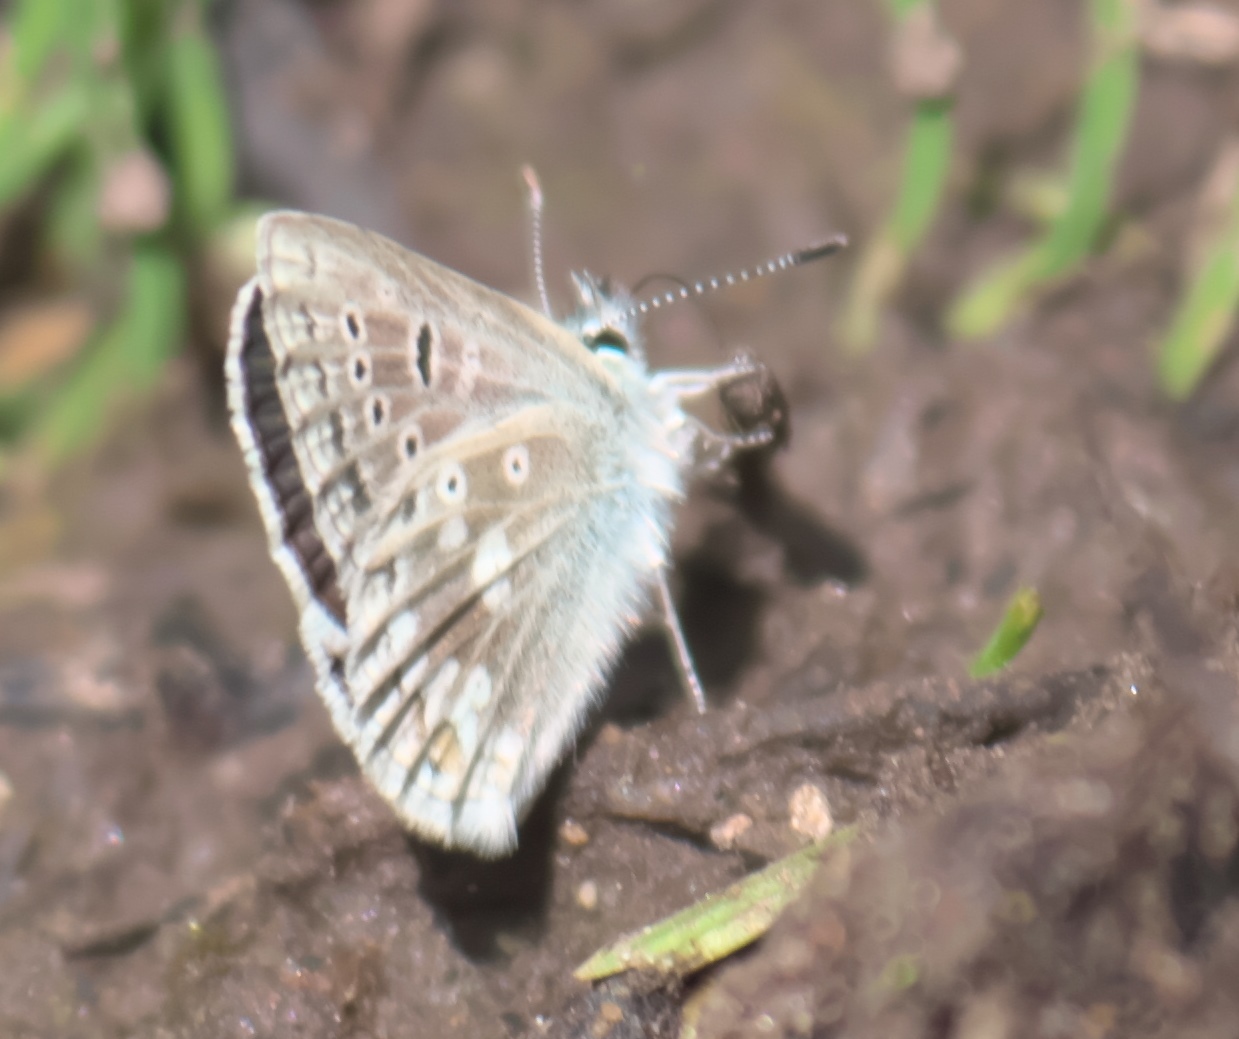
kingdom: Animalia
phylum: Arthropoda
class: Insecta
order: Lepidoptera
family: Lycaenidae
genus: Agriades
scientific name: Agriades glandon
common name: Glandon blue
